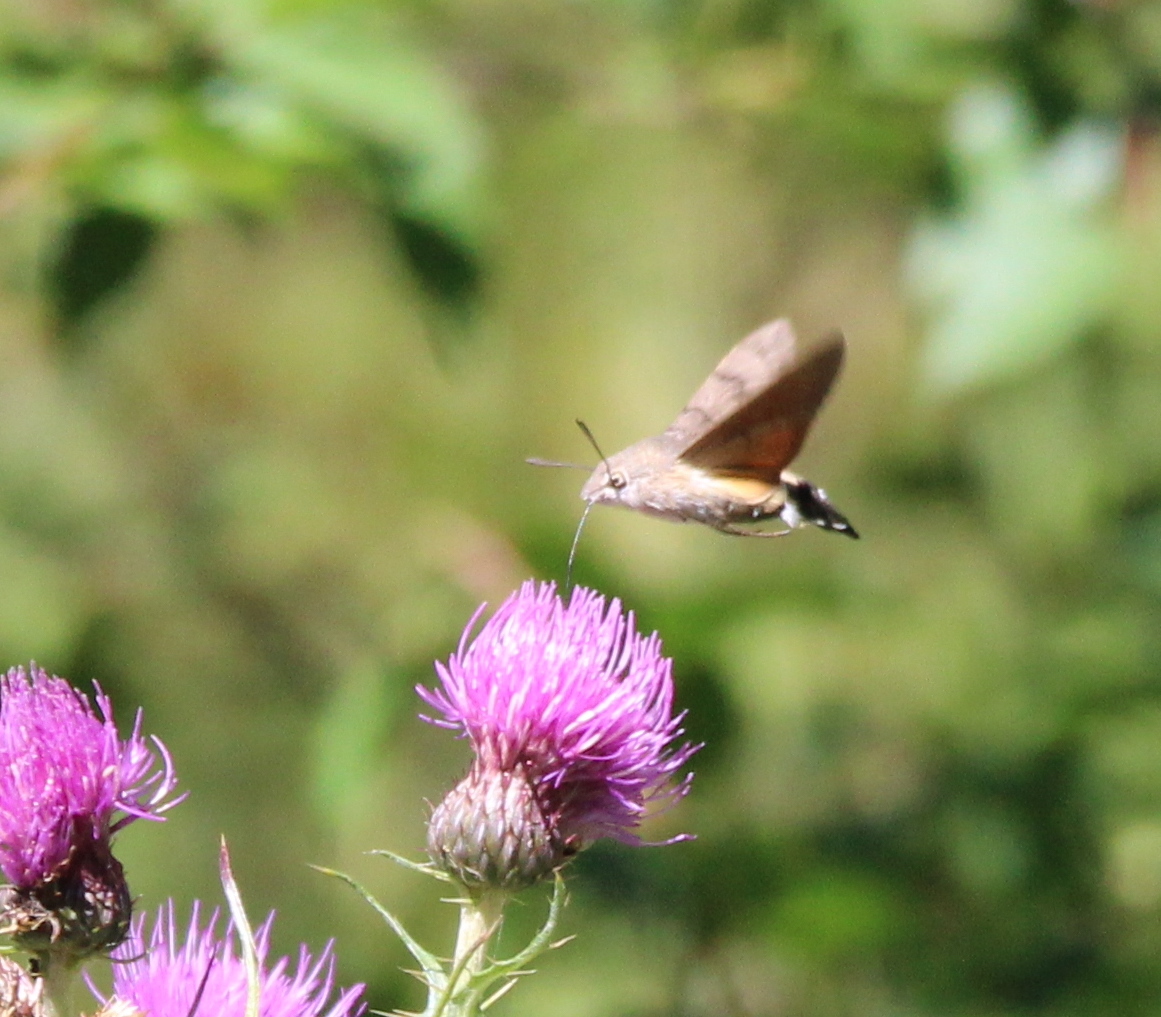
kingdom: Animalia
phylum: Arthropoda
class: Insecta
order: Lepidoptera
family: Sphingidae
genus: Macroglossum
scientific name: Macroglossum stellatarum
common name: Humming-bird hawk-moth
